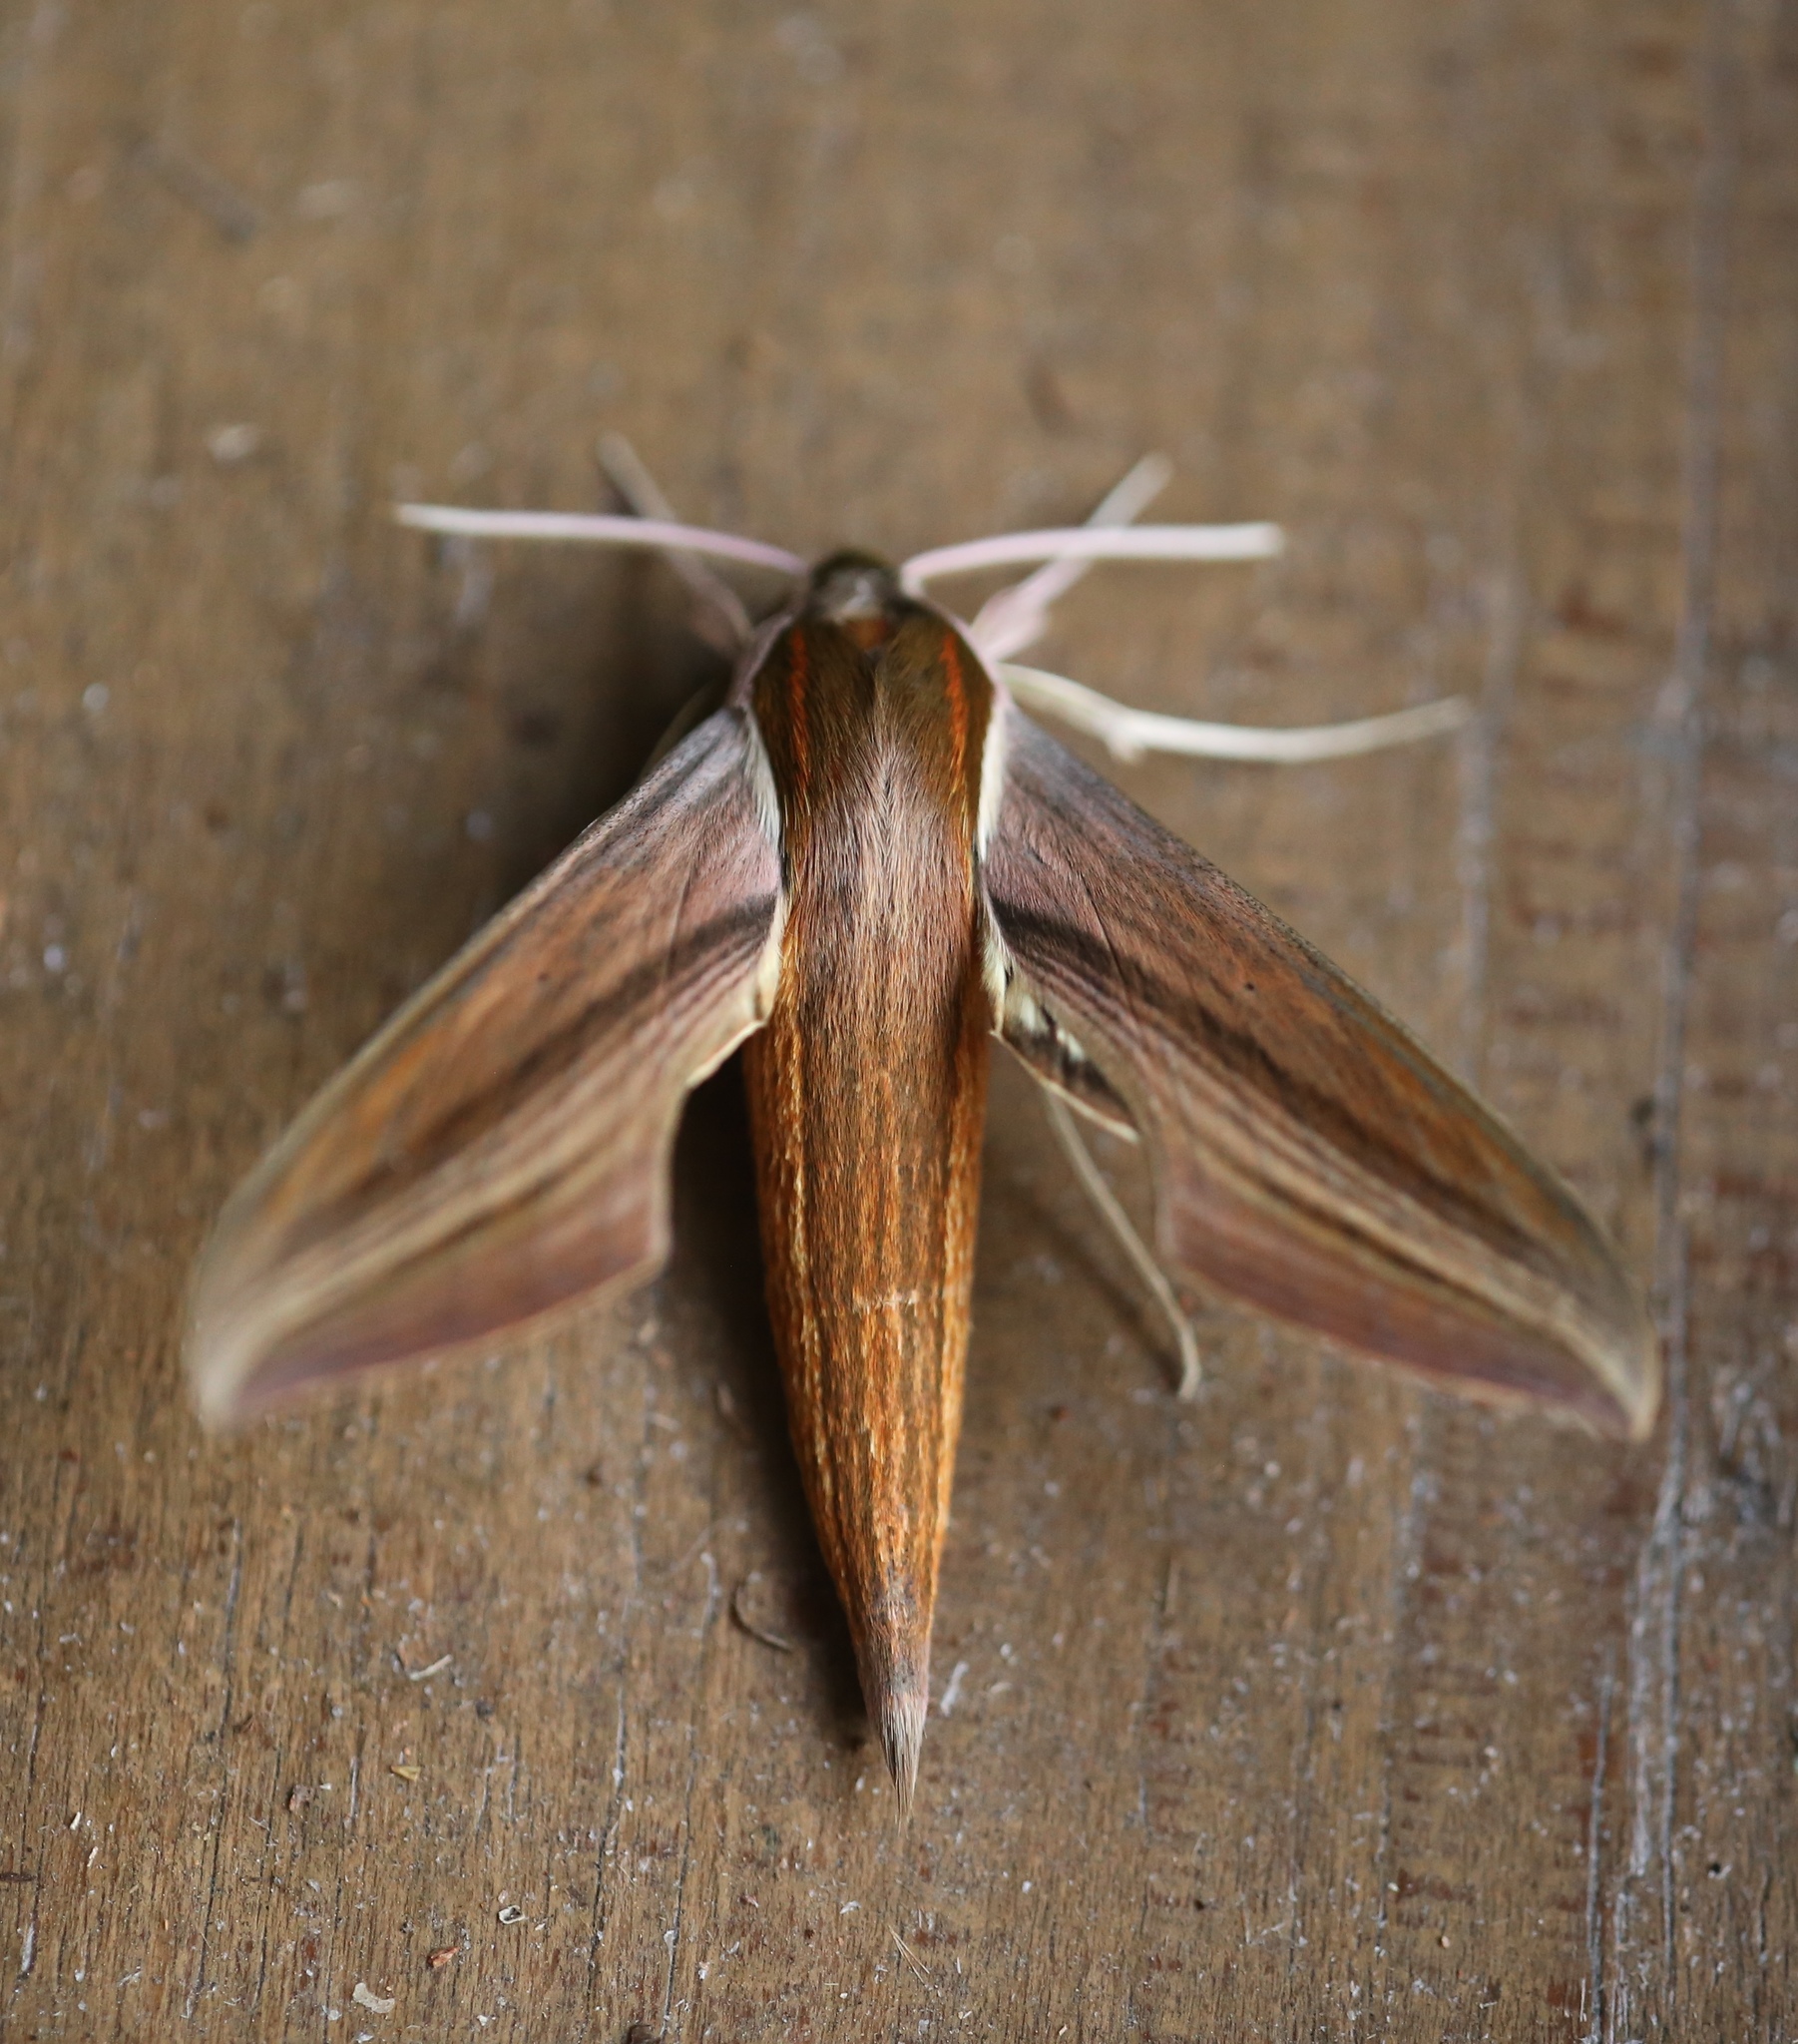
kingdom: Animalia
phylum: Arthropoda
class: Insecta
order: Lepidoptera
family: Sphingidae
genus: Xylophanes
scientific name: Xylophanes tersa
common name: Tersa sphinx
